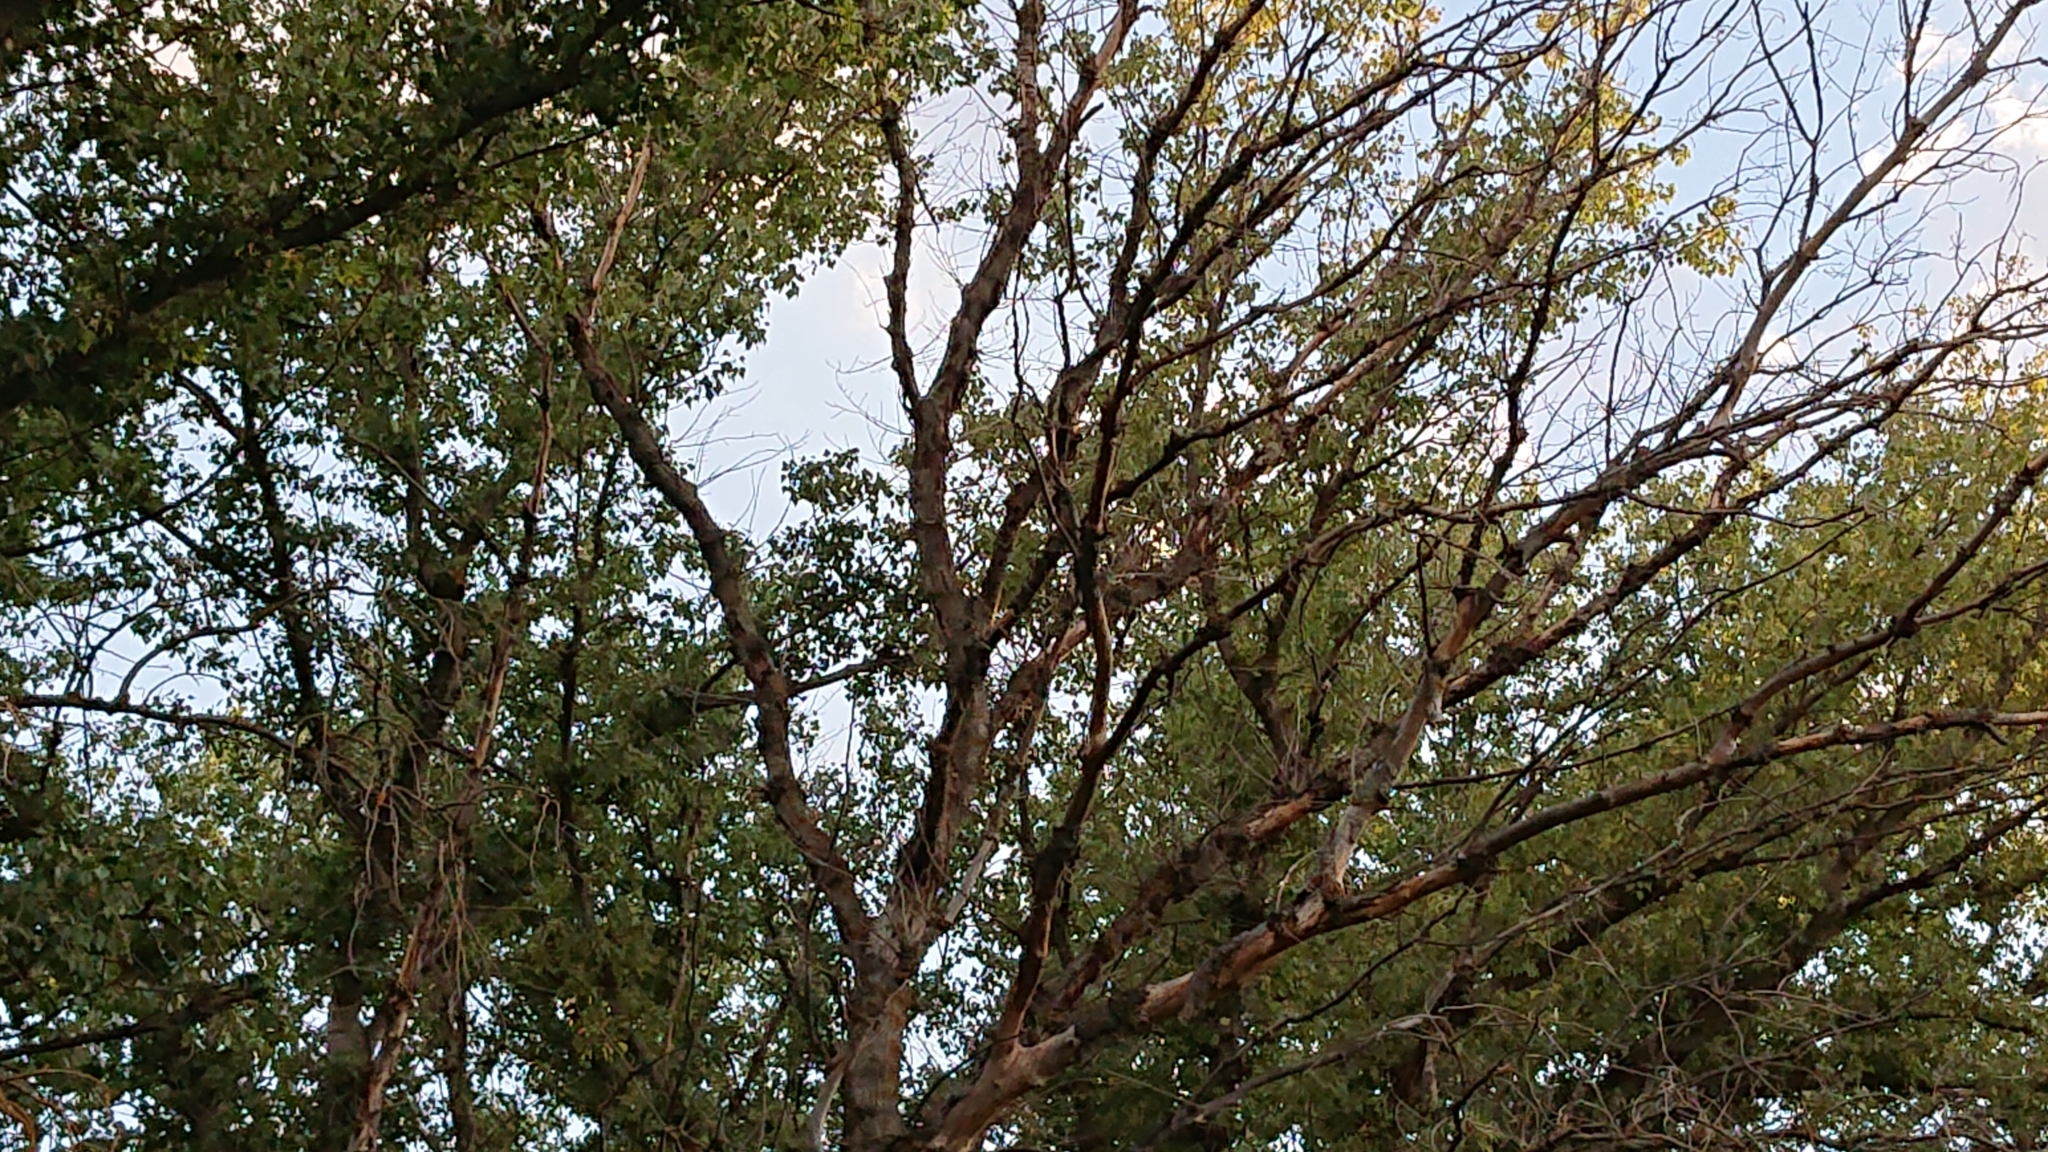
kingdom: Plantae
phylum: Tracheophyta
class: Magnoliopsida
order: Malpighiales
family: Salicaceae
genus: Populus
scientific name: Populus nigra
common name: Black poplar
